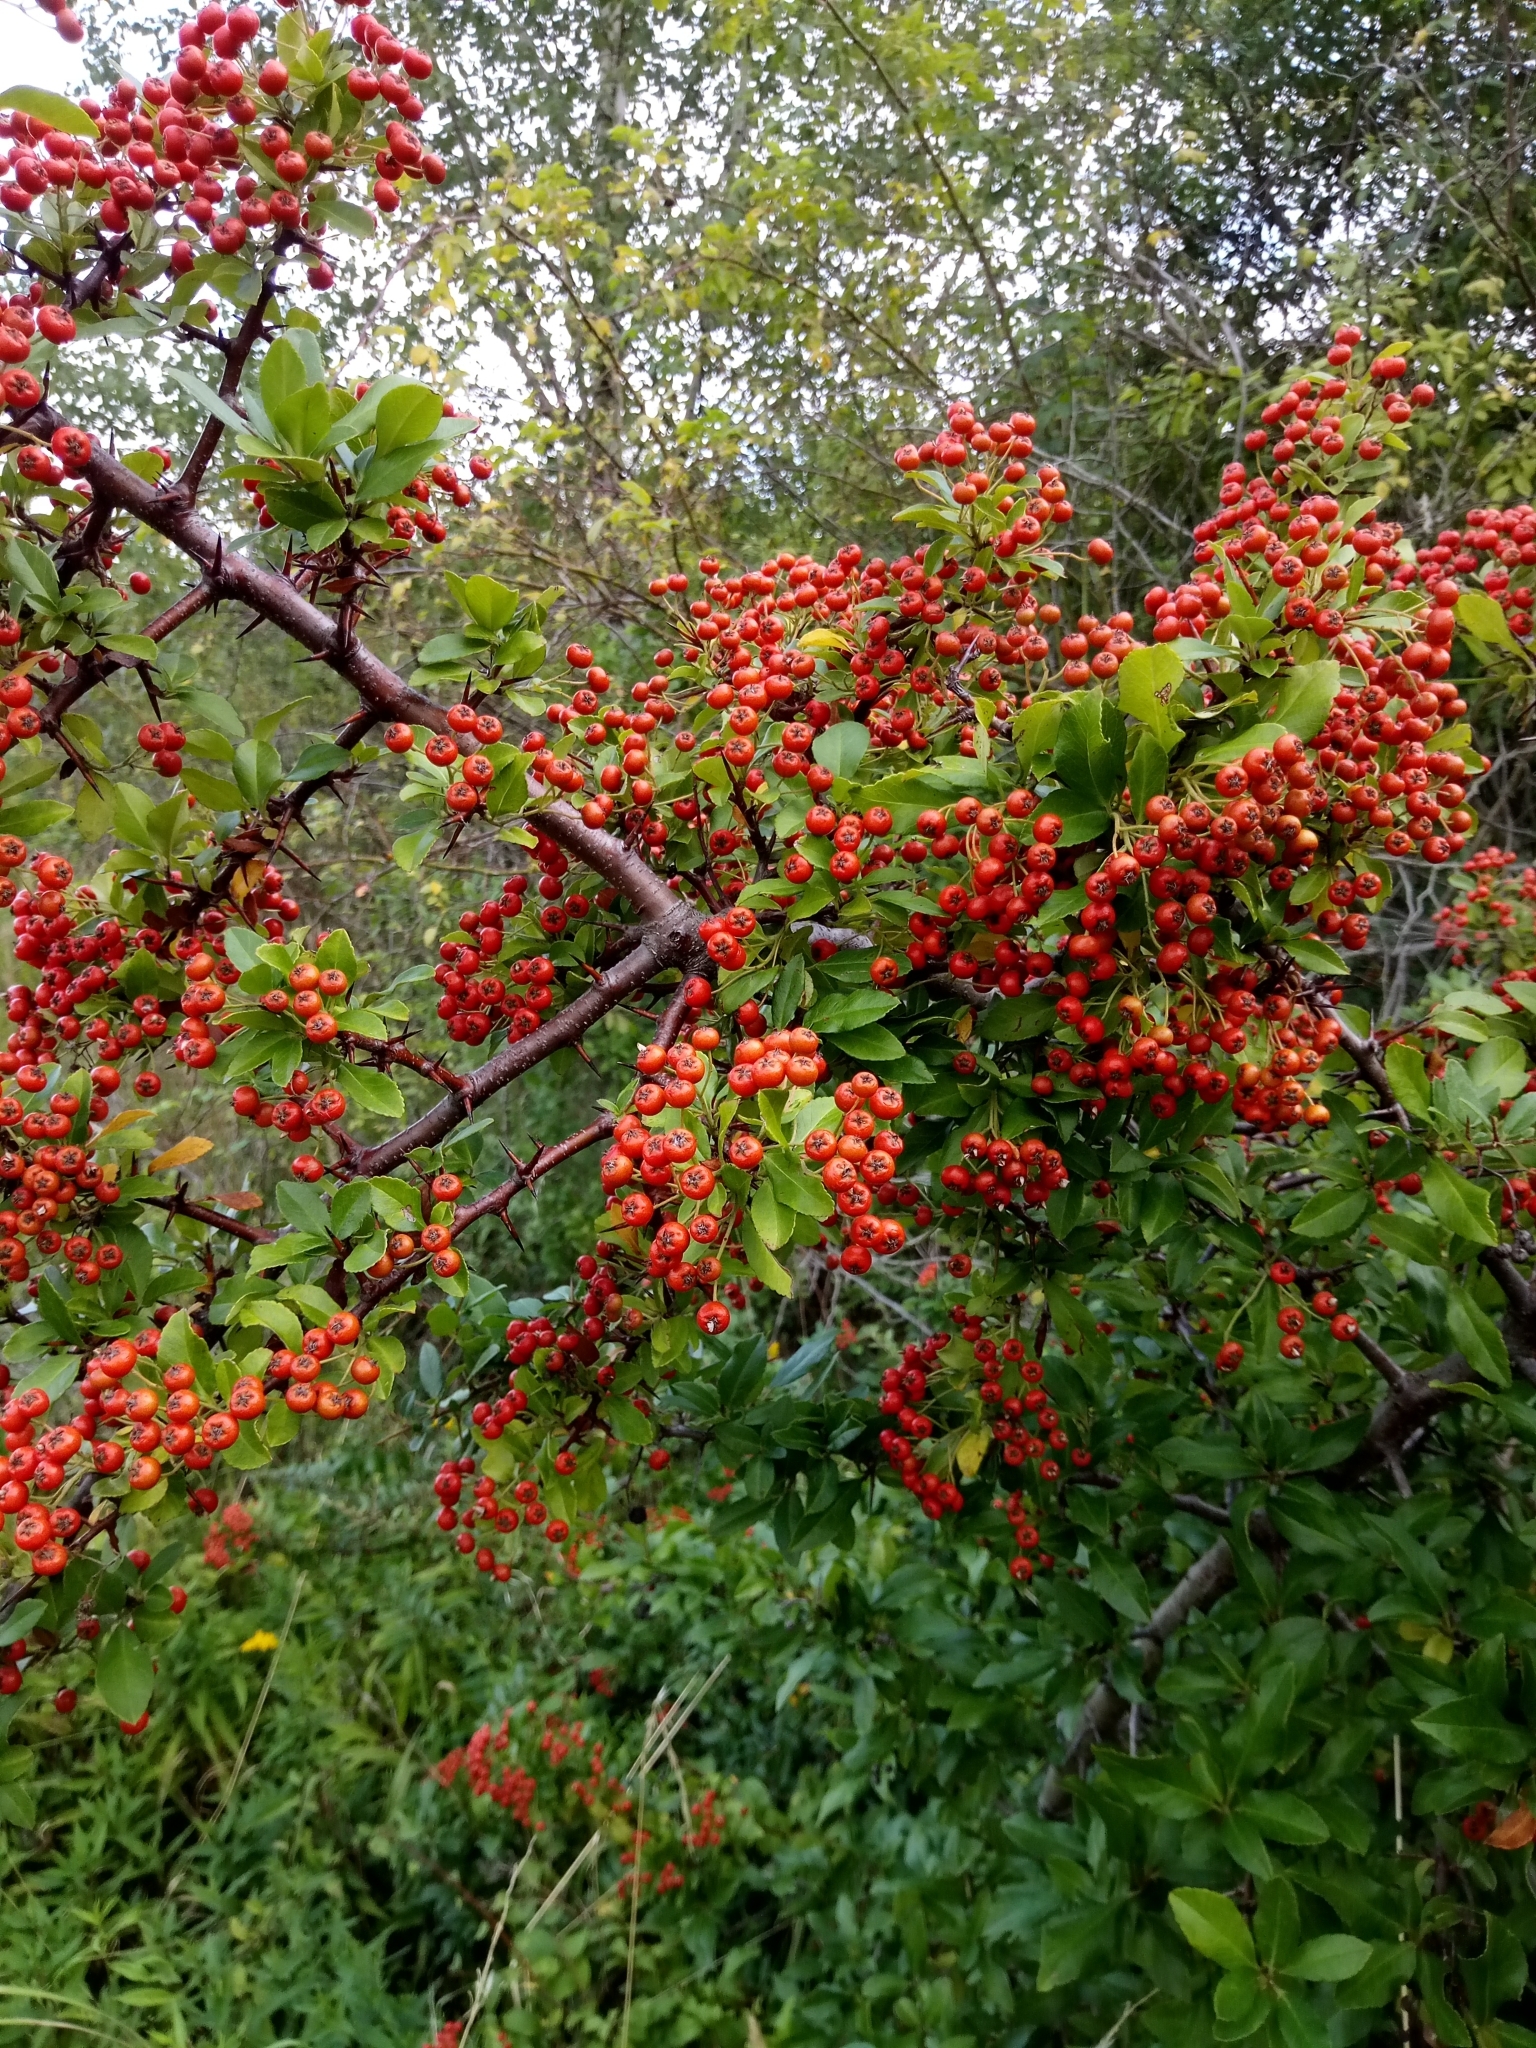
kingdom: Plantae
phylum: Tracheophyta
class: Magnoliopsida
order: Rosales
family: Rosaceae
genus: Pyracantha
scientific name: Pyracantha coccinea
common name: Firethorn
